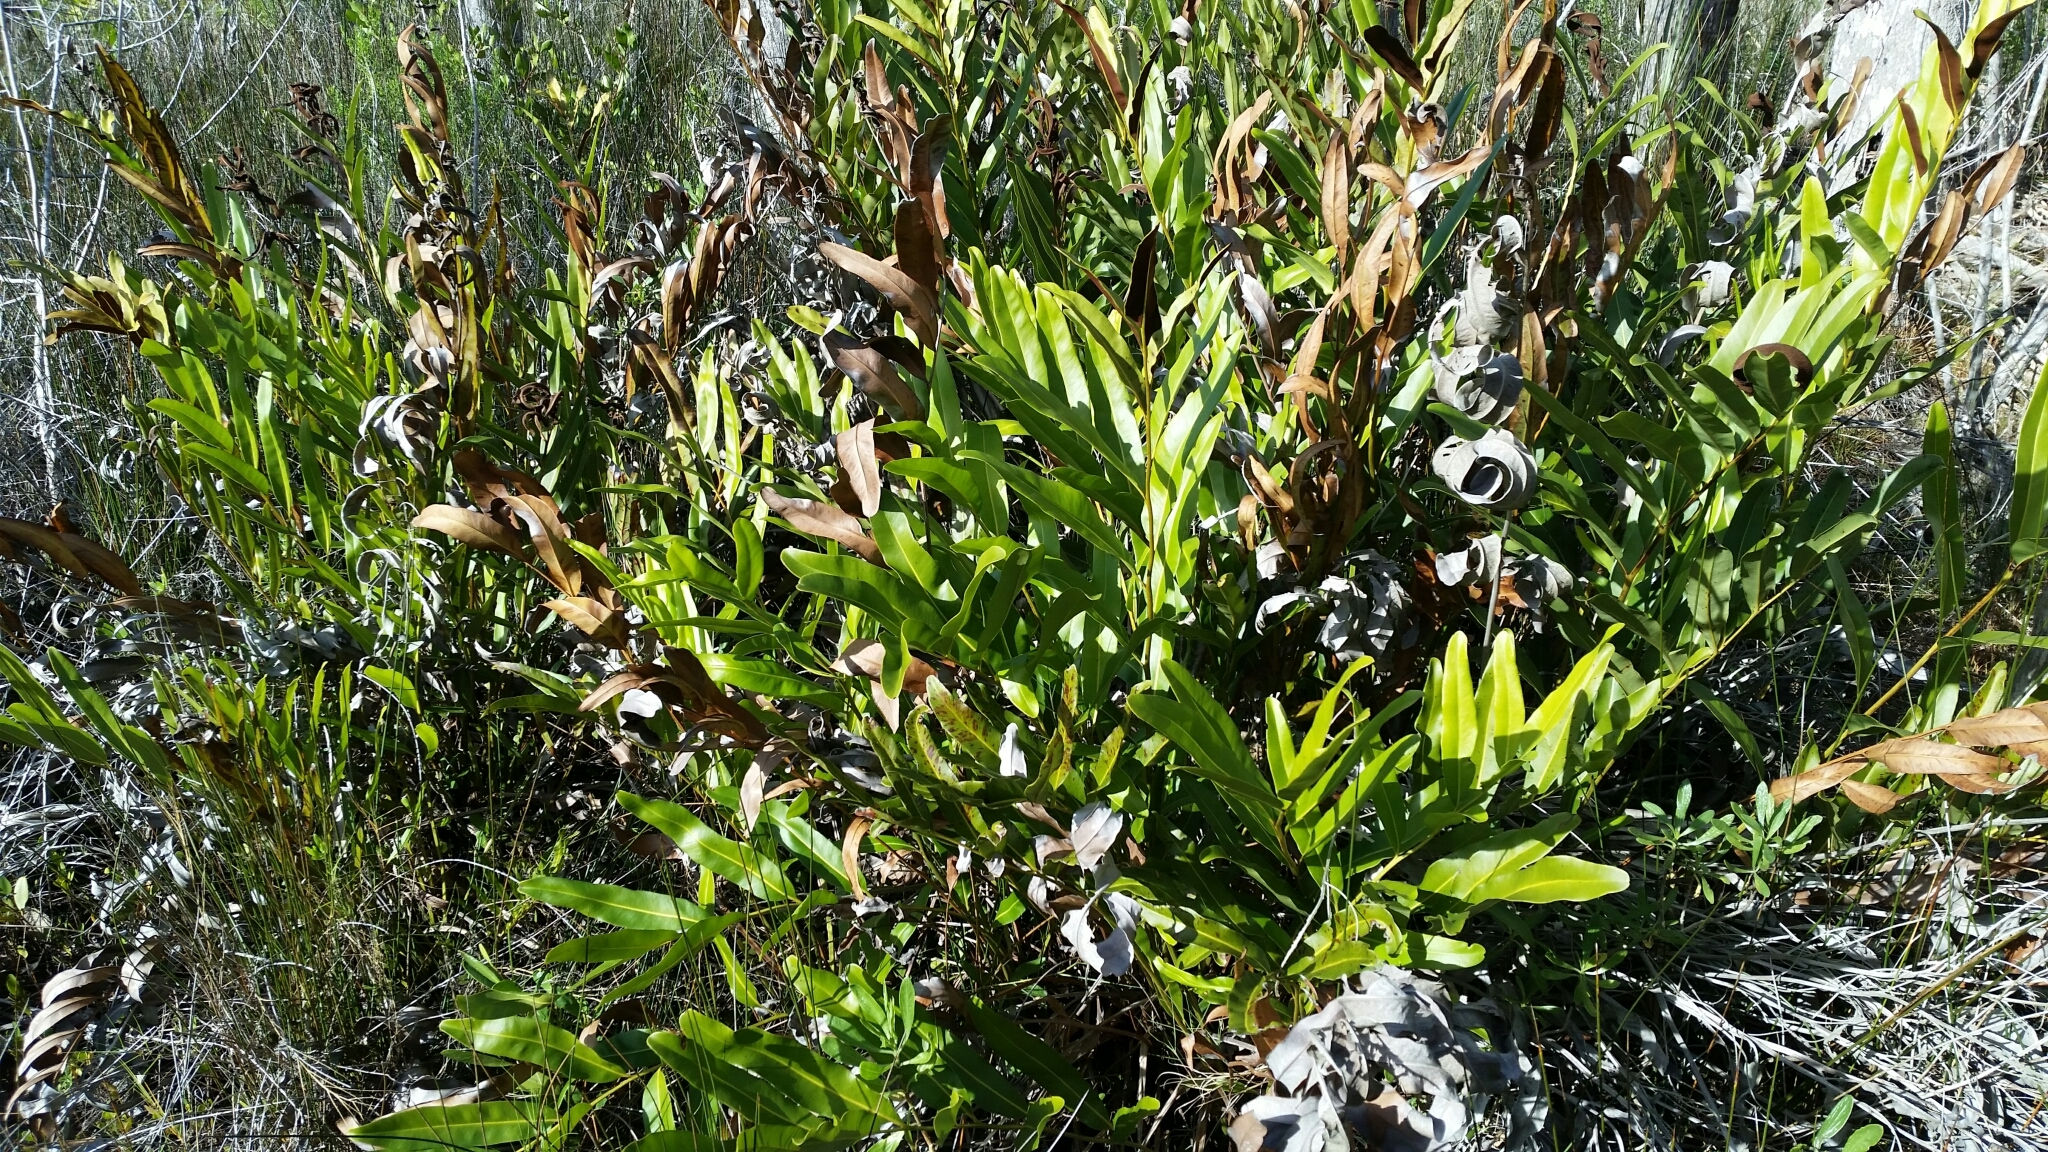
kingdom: Plantae
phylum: Tracheophyta
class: Polypodiopsida
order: Polypodiales
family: Pteridaceae
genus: Acrostichum
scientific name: Acrostichum aureum
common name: Leather fern
